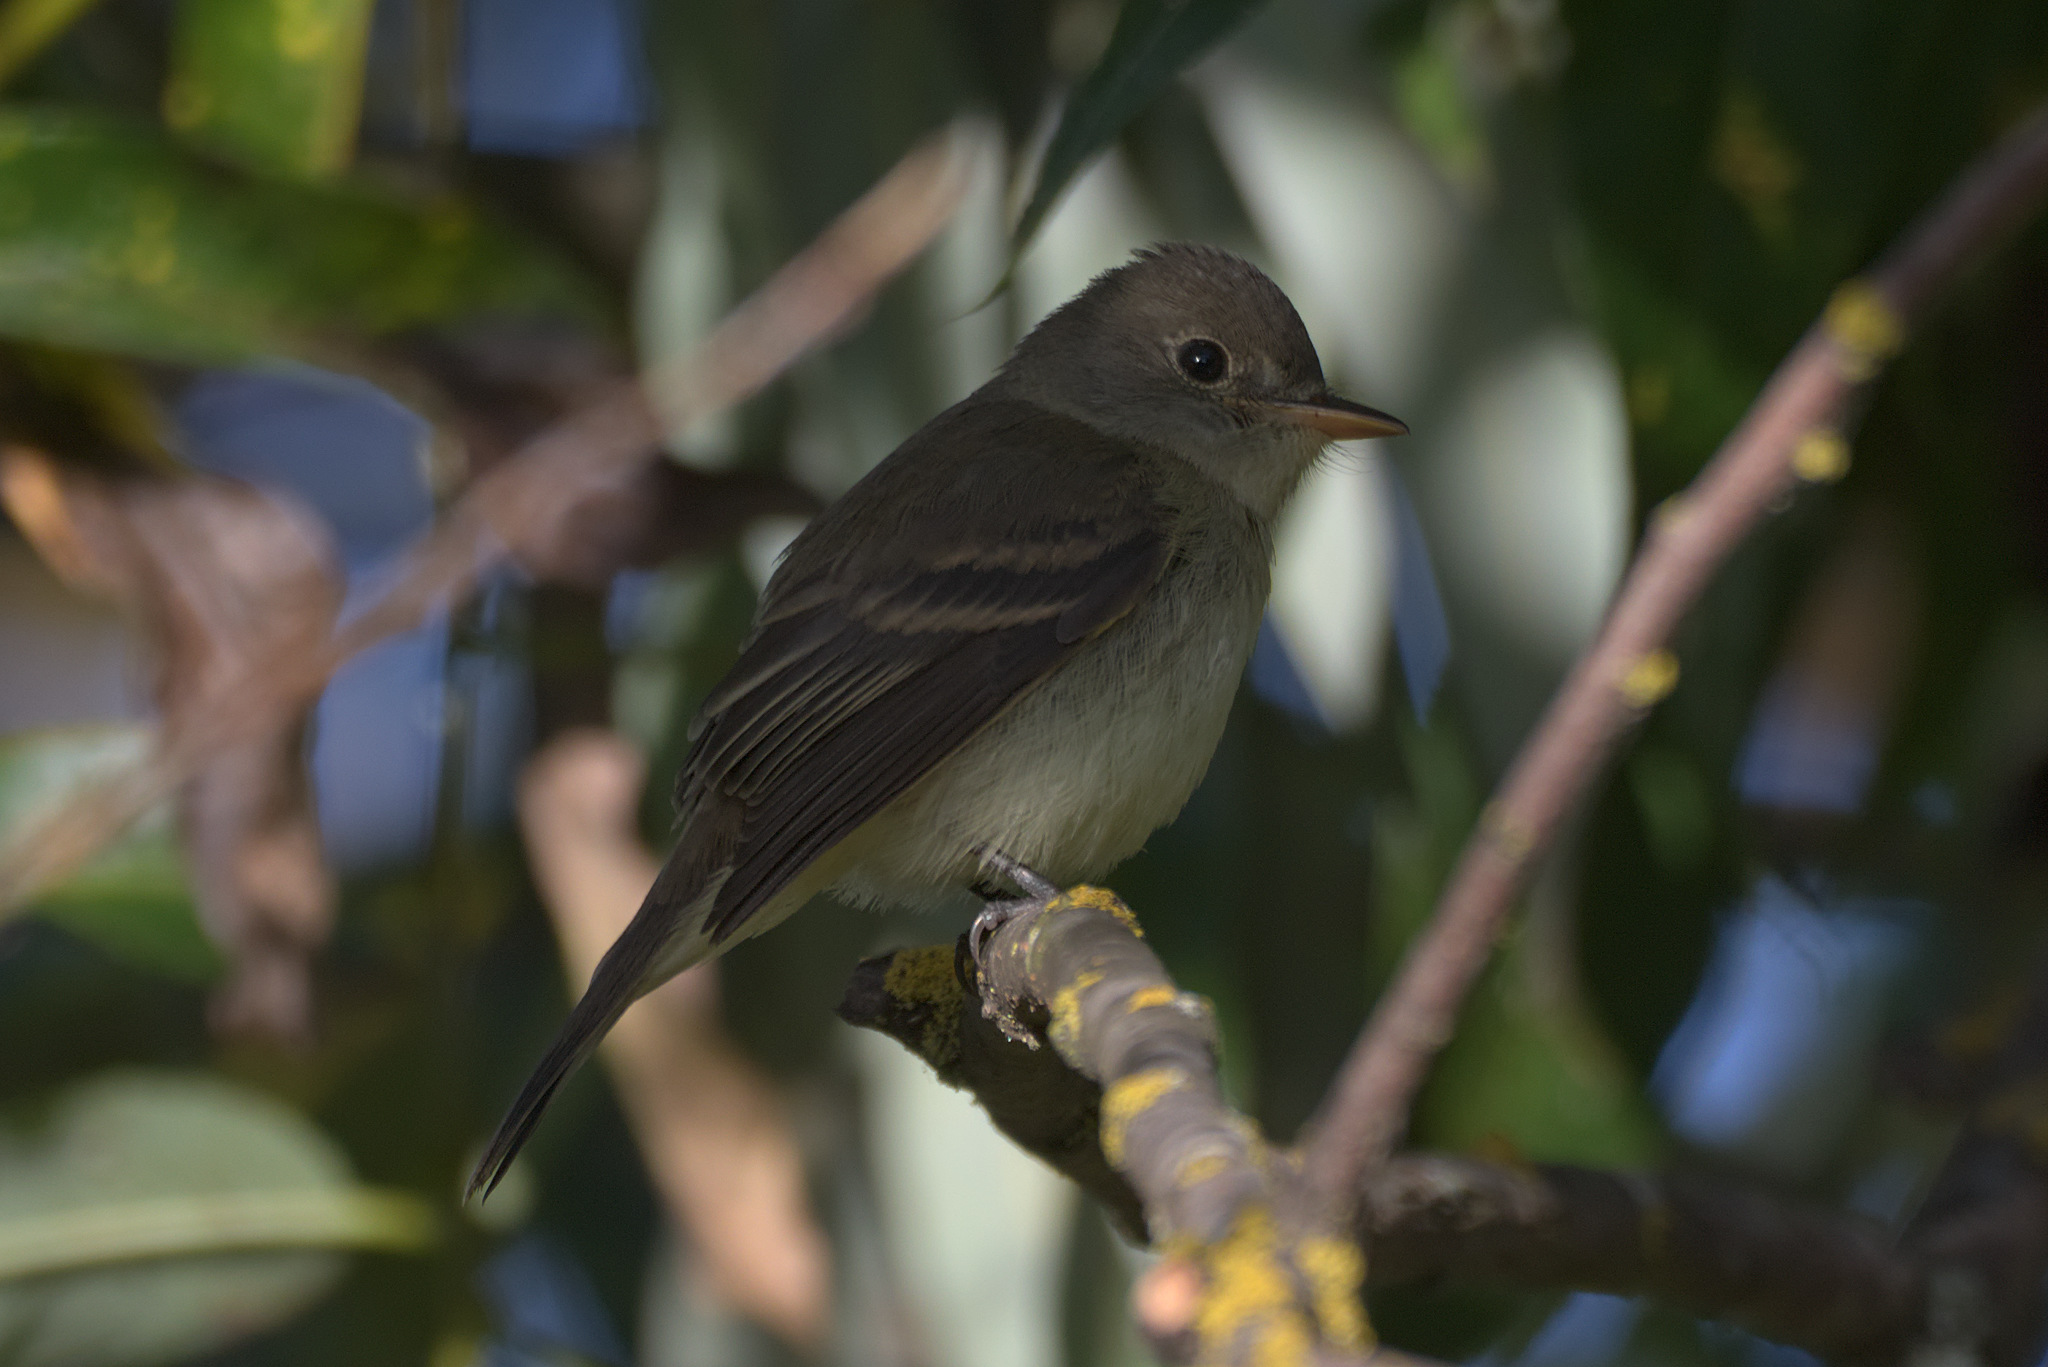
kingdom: Animalia
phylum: Chordata
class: Aves
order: Passeriformes
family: Tyrannidae
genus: Empidonax
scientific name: Empidonax traillii
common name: Willow flycatcher
